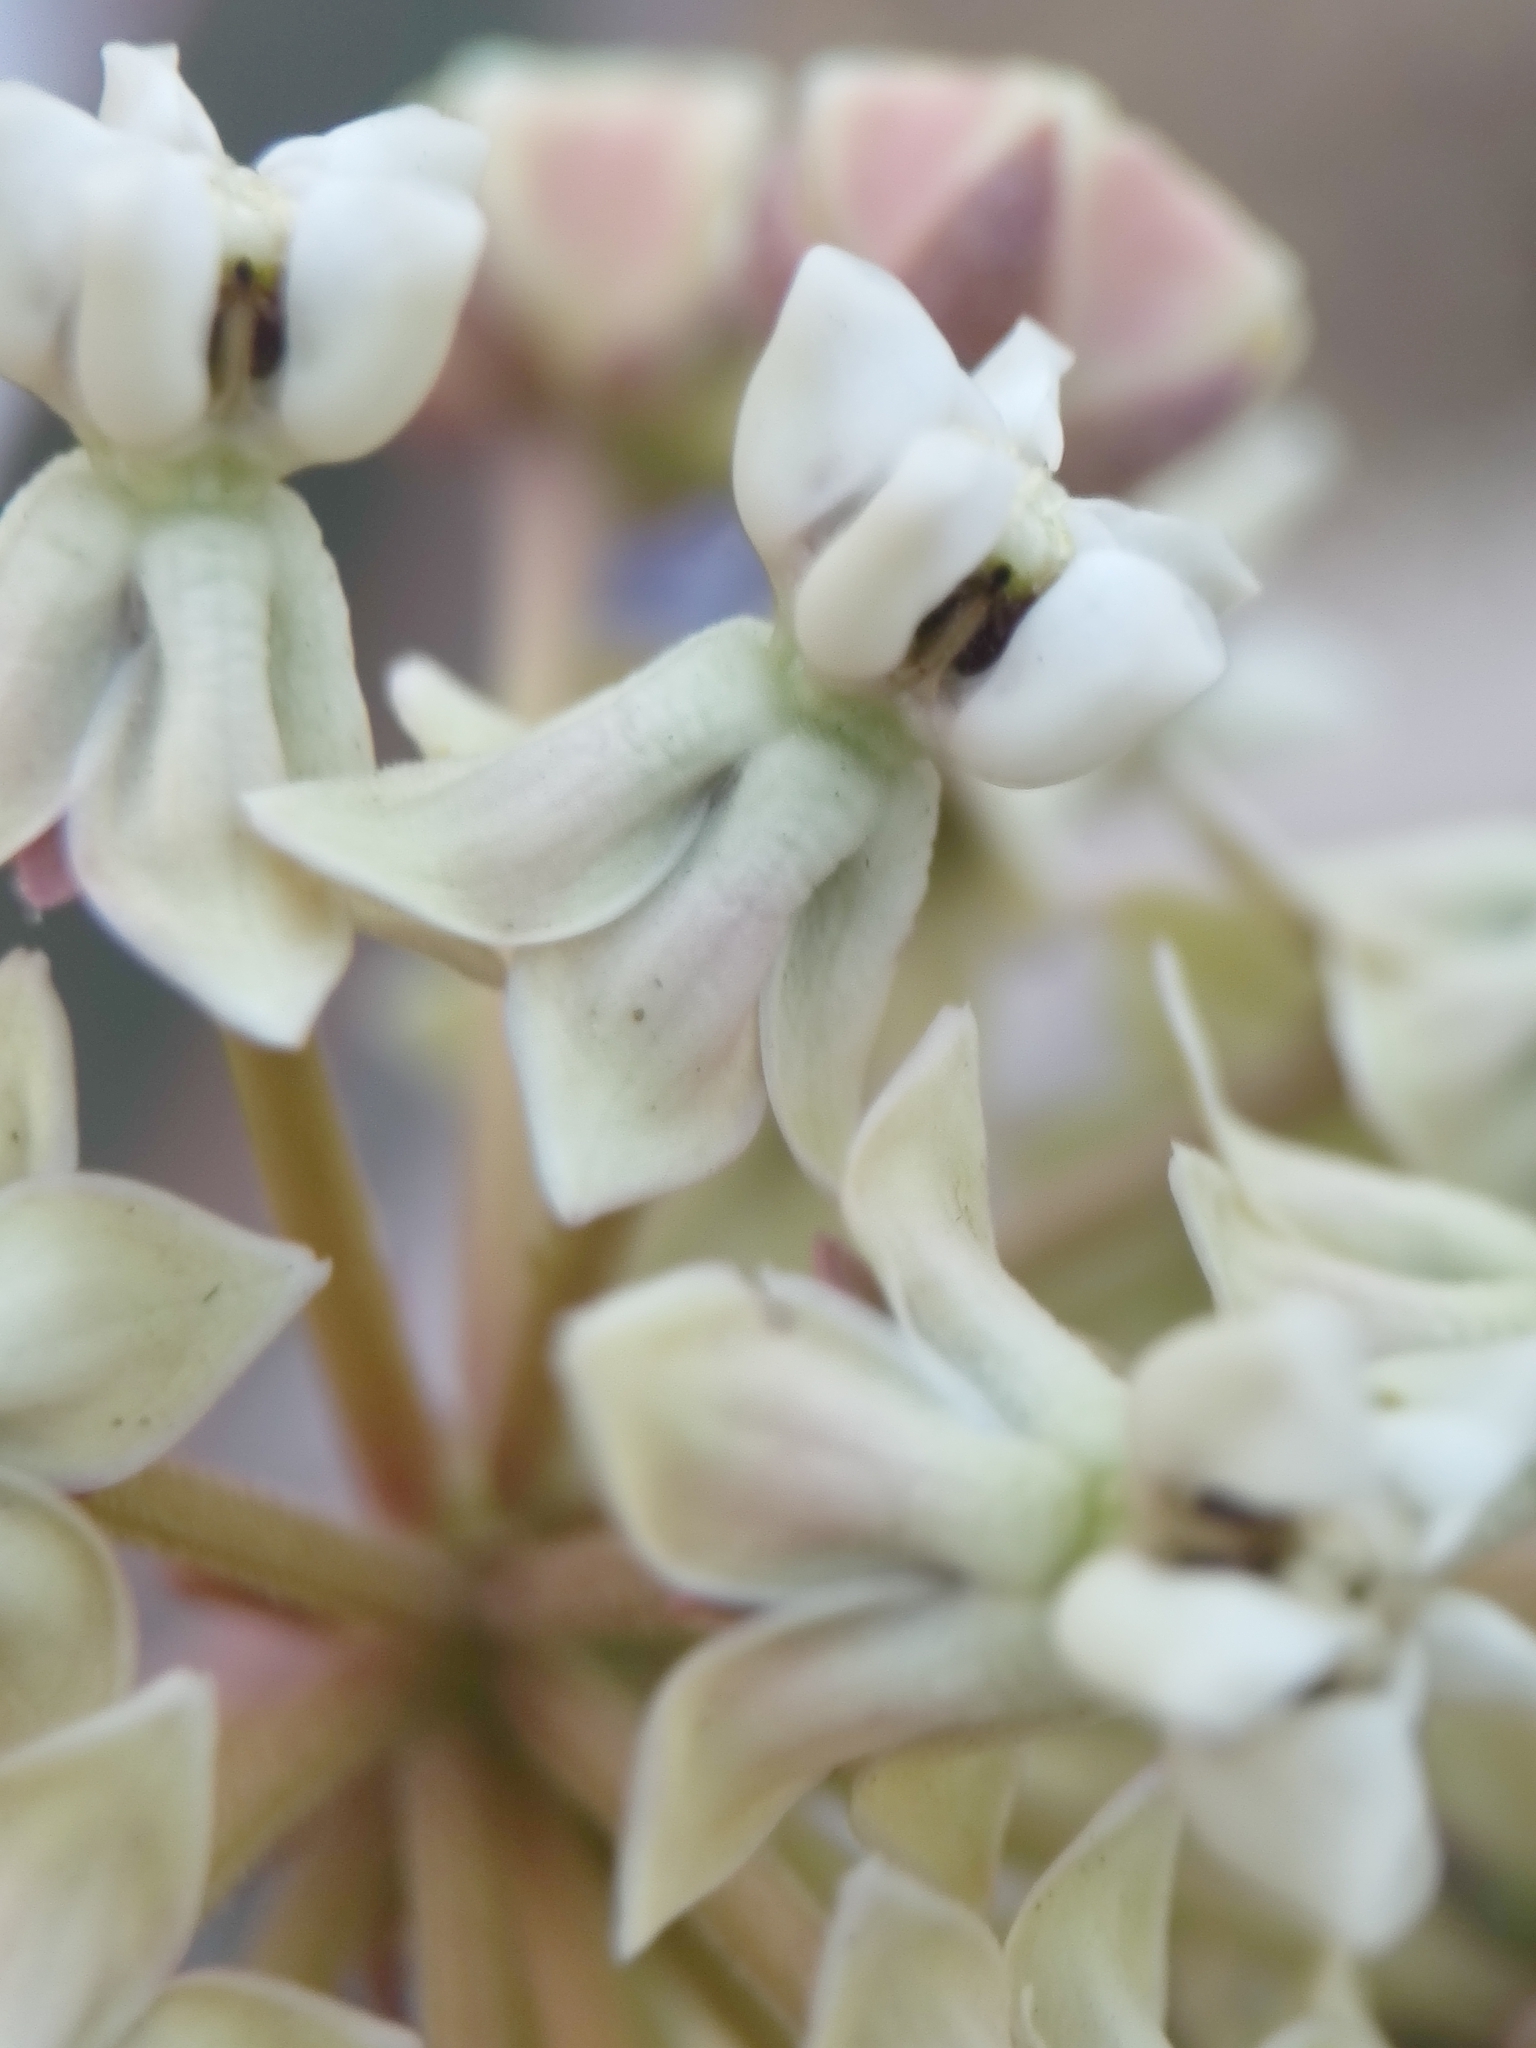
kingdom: Plantae
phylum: Tracheophyta
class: Magnoliopsida
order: Gentianales
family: Apocynaceae
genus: Asclepias
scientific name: Asclepias glaucescens
